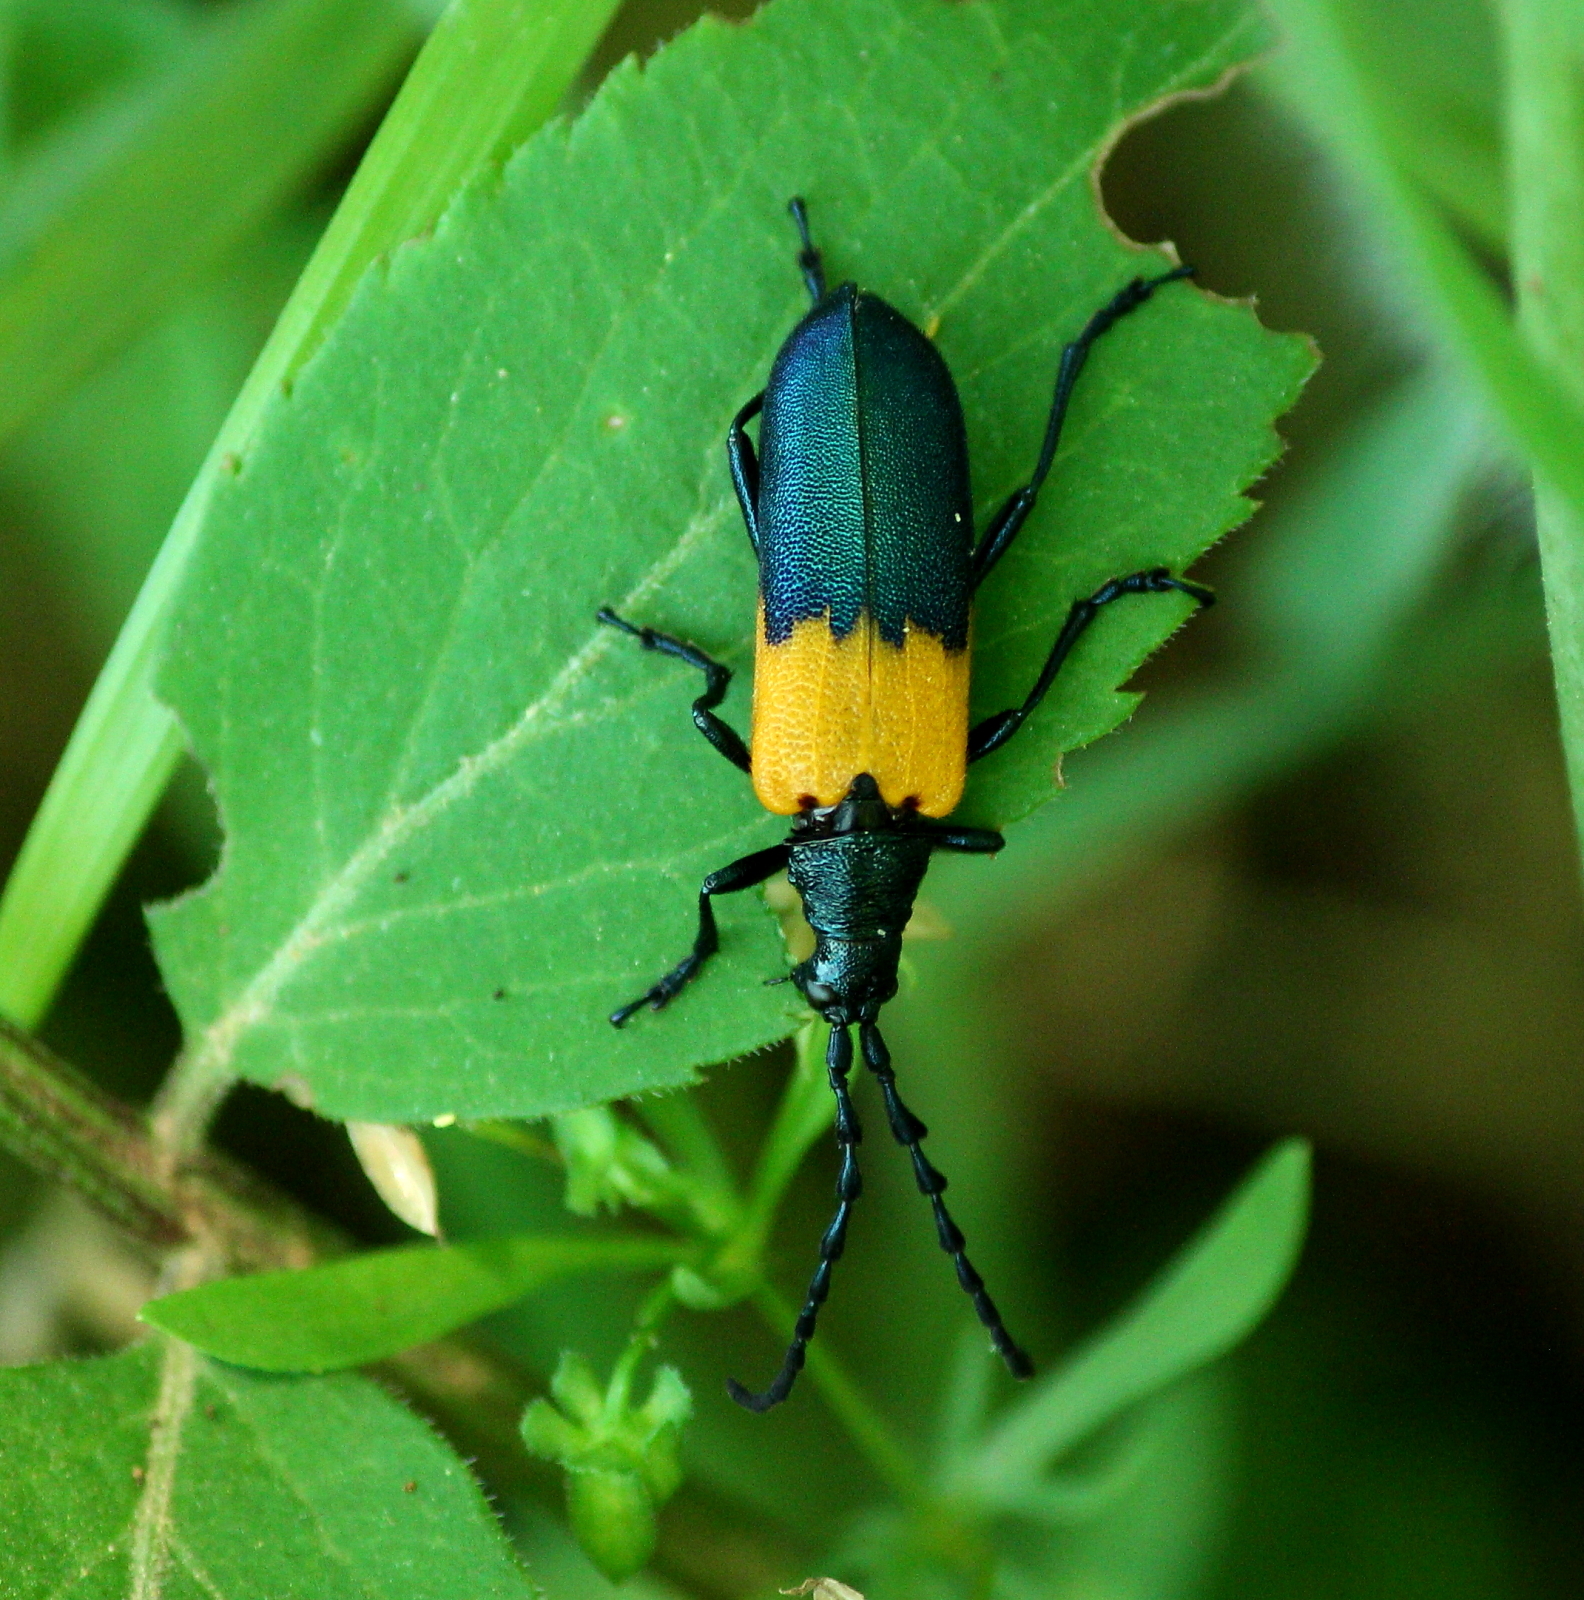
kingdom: Animalia
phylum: Arthropoda
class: Insecta
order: Coleoptera
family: Cerambycidae
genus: Desmocerus
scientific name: Desmocerus palliatus
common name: Eastern elderberry borer
